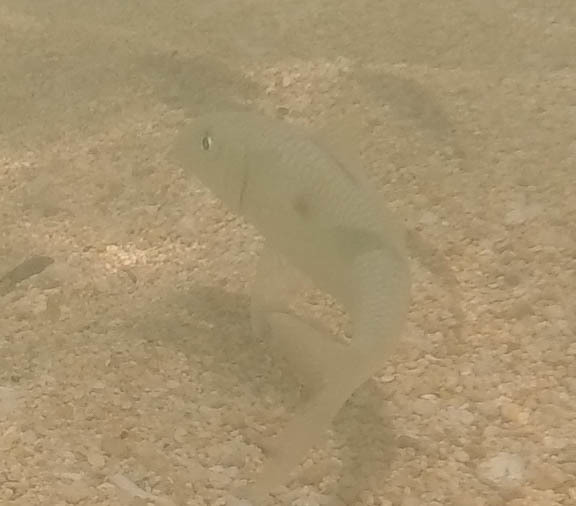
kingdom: Animalia
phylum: Chordata
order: Perciformes
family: Mullidae
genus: Mulloidichthys
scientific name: Mulloidichthys flavolineatus
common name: Yellowstripe goatfish
